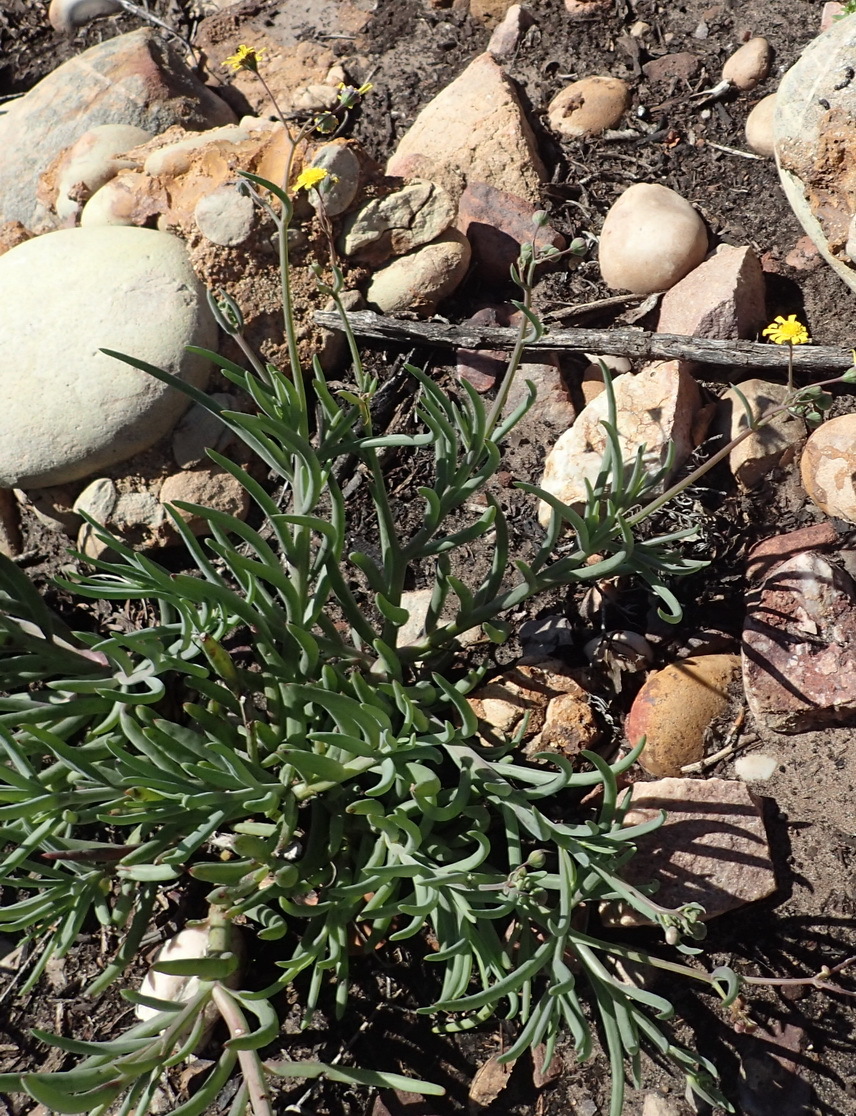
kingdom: Plantae
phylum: Tracheophyta
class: Magnoliopsida
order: Asterales
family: Asteraceae
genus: Crassothonna
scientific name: Crassothonna capensis
